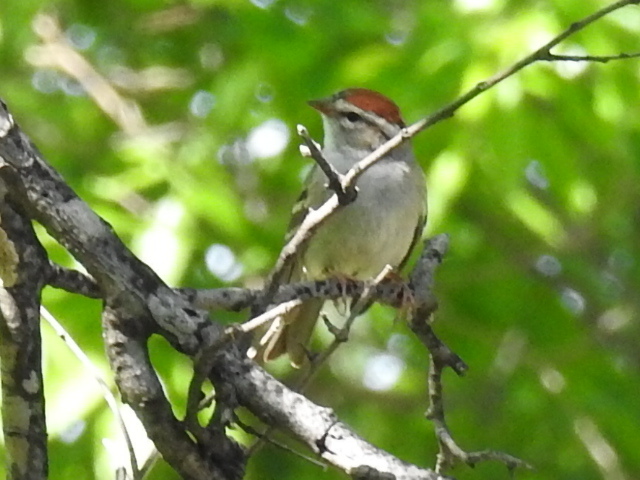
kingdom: Animalia
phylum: Chordata
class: Aves
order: Passeriformes
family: Passerellidae
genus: Spizella
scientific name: Spizella passerina
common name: Chipping sparrow
